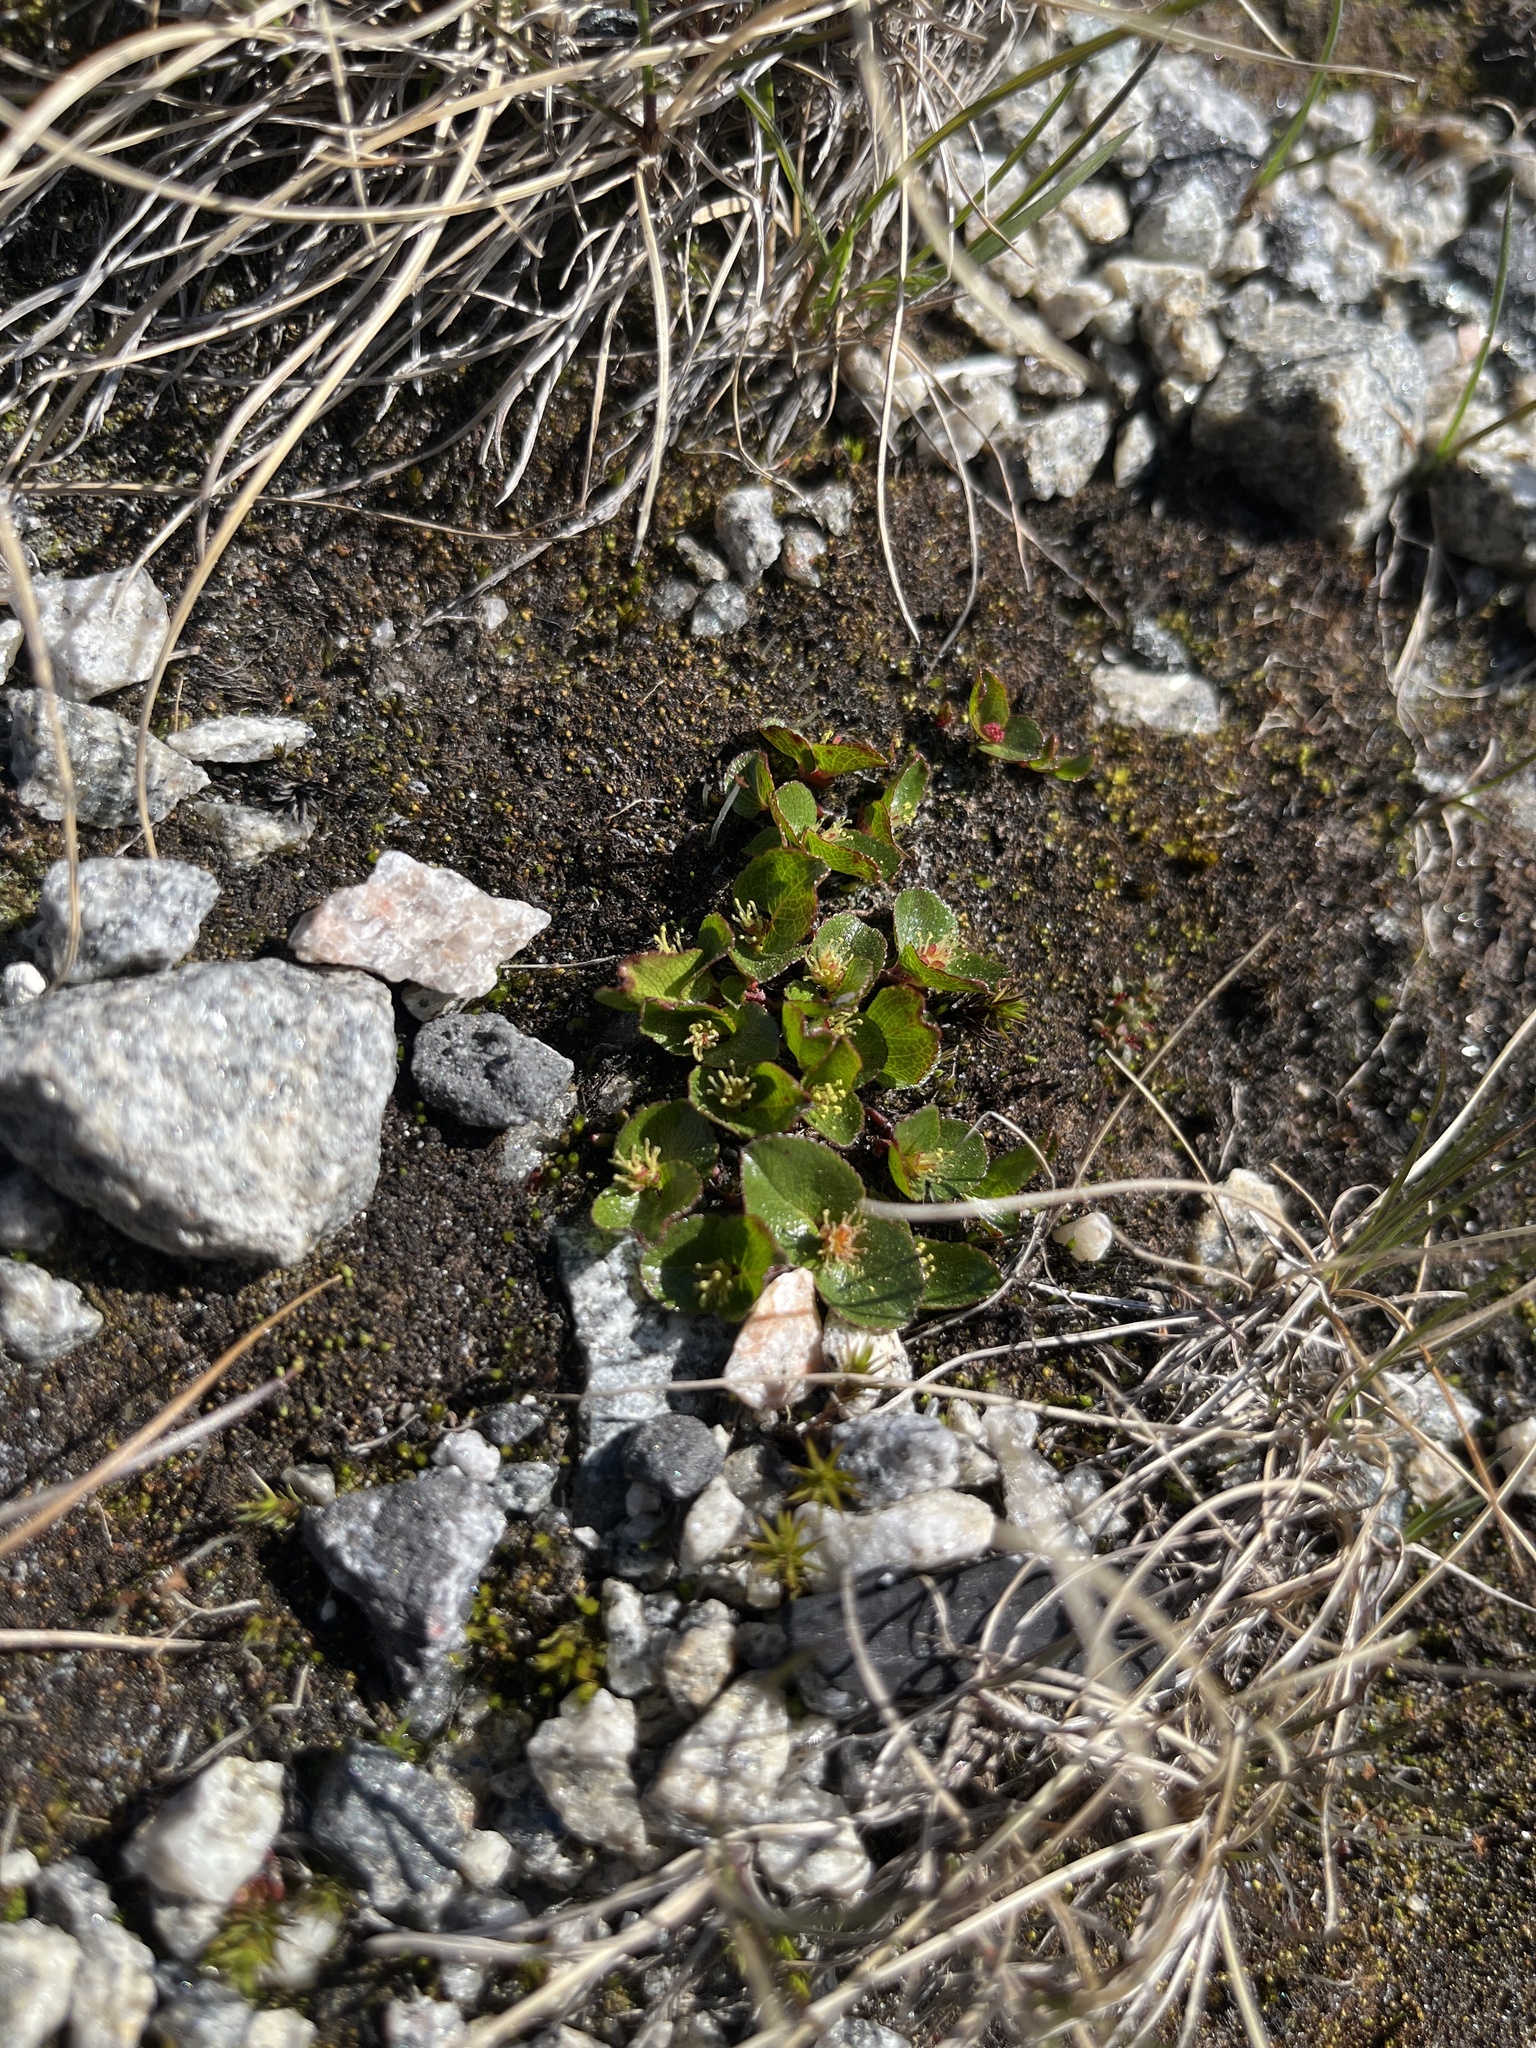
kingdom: Plantae
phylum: Tracheophyta
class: Magnoliopsida
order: Malpighiales
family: Salicaceae
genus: Salix
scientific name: Salix herbacea
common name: Dwarf willow
